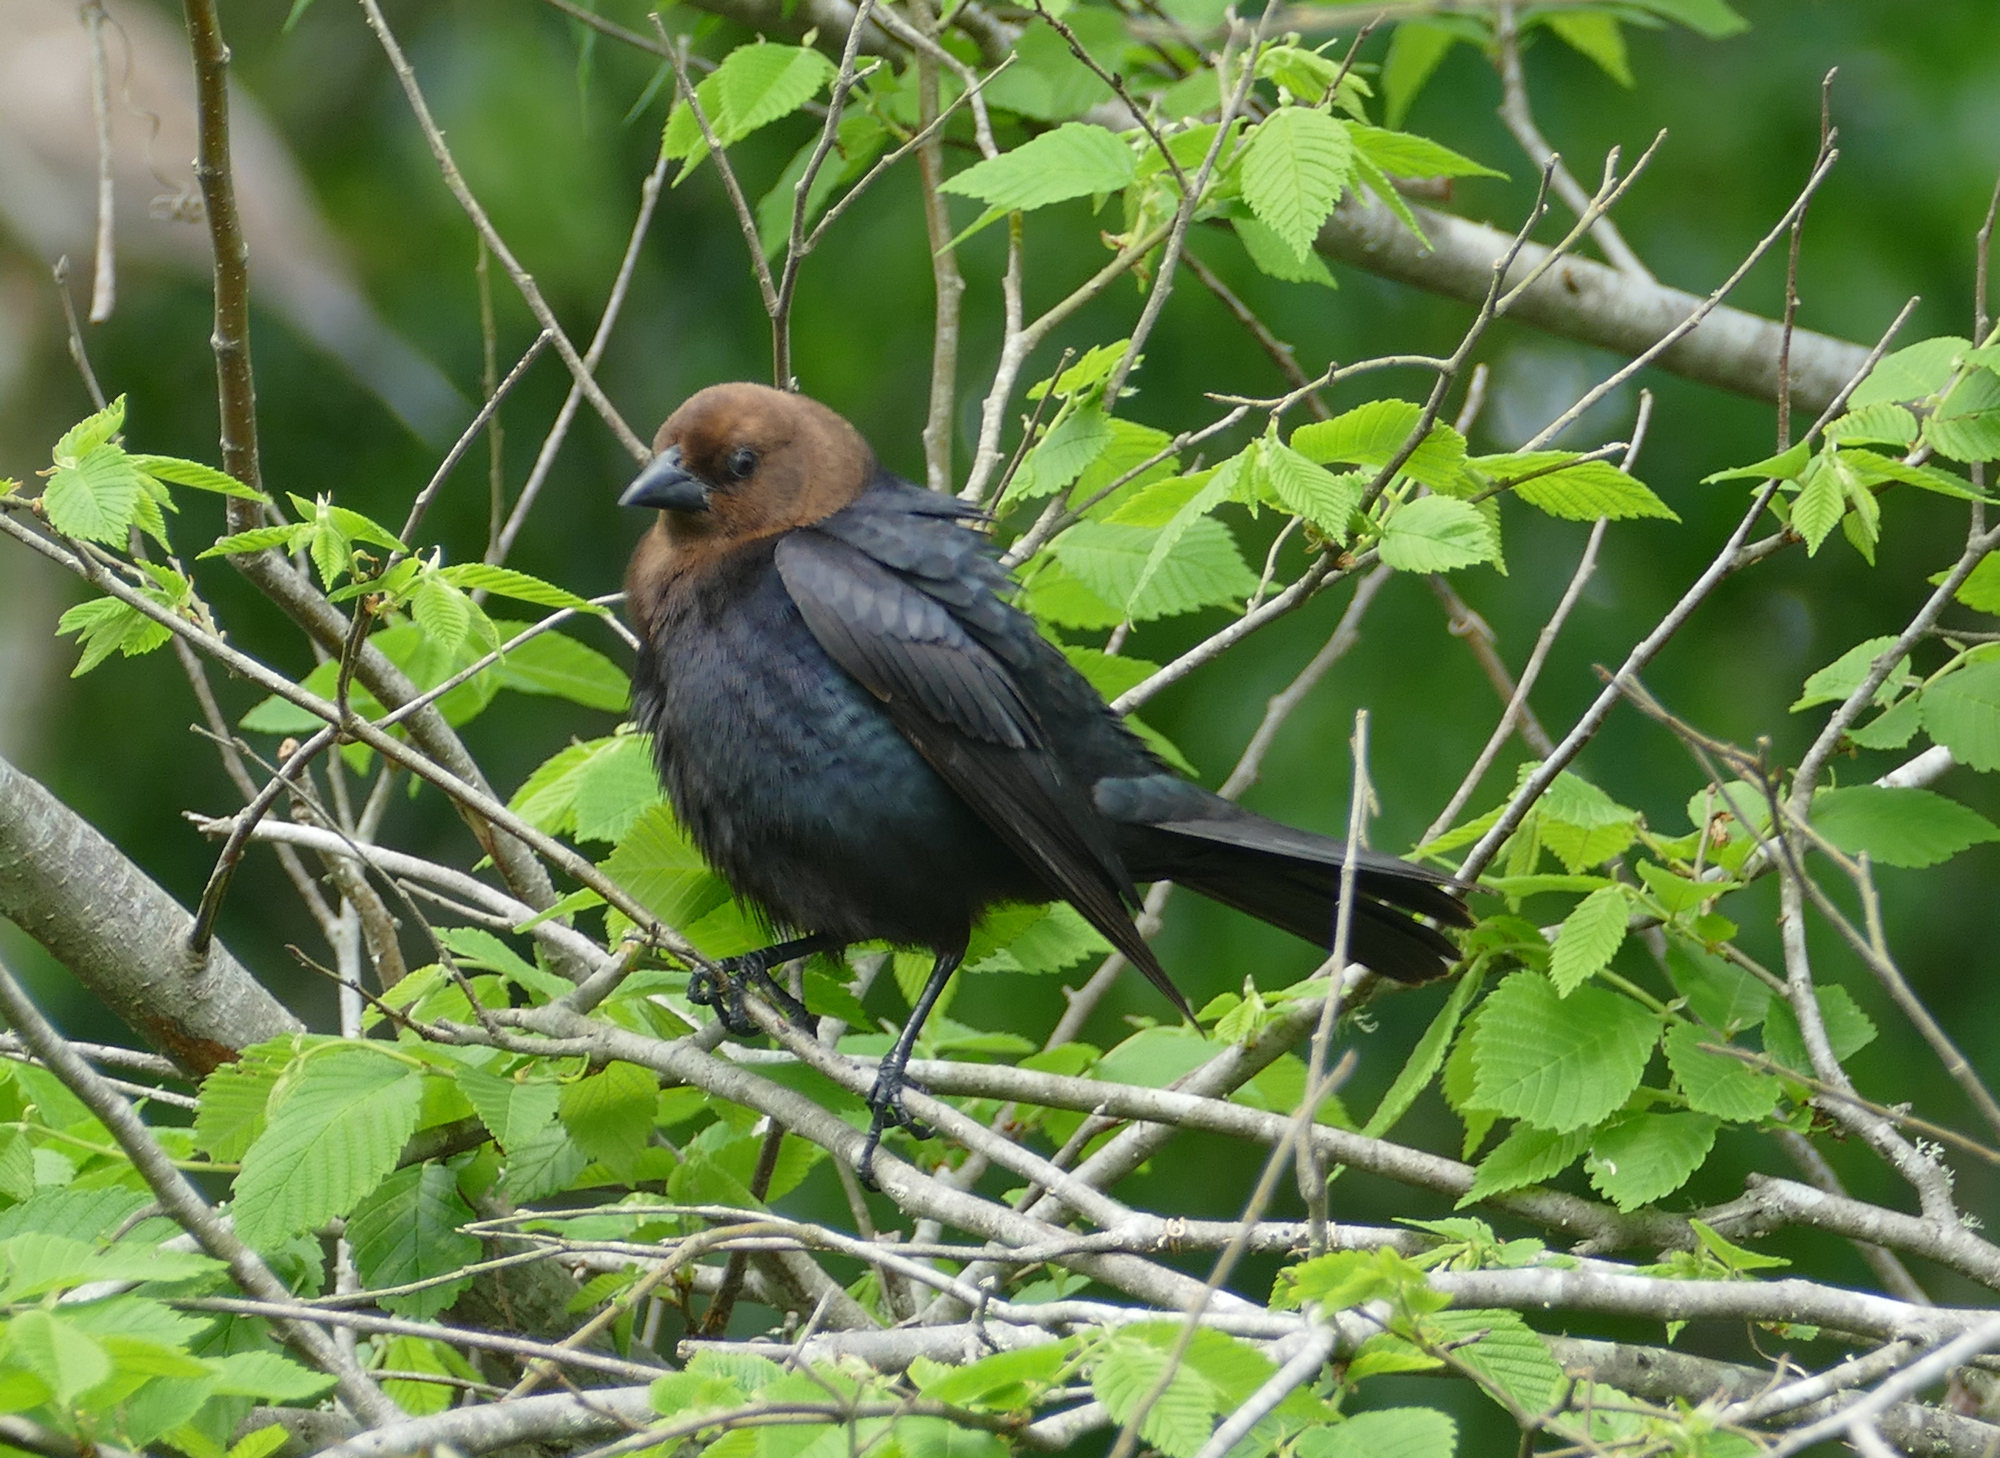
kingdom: Animalia
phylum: Chordata
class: Aves
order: Passeriformes
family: Icteridae
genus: Molothrus
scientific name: Molothrus ater
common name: Brown-headed cowbird
